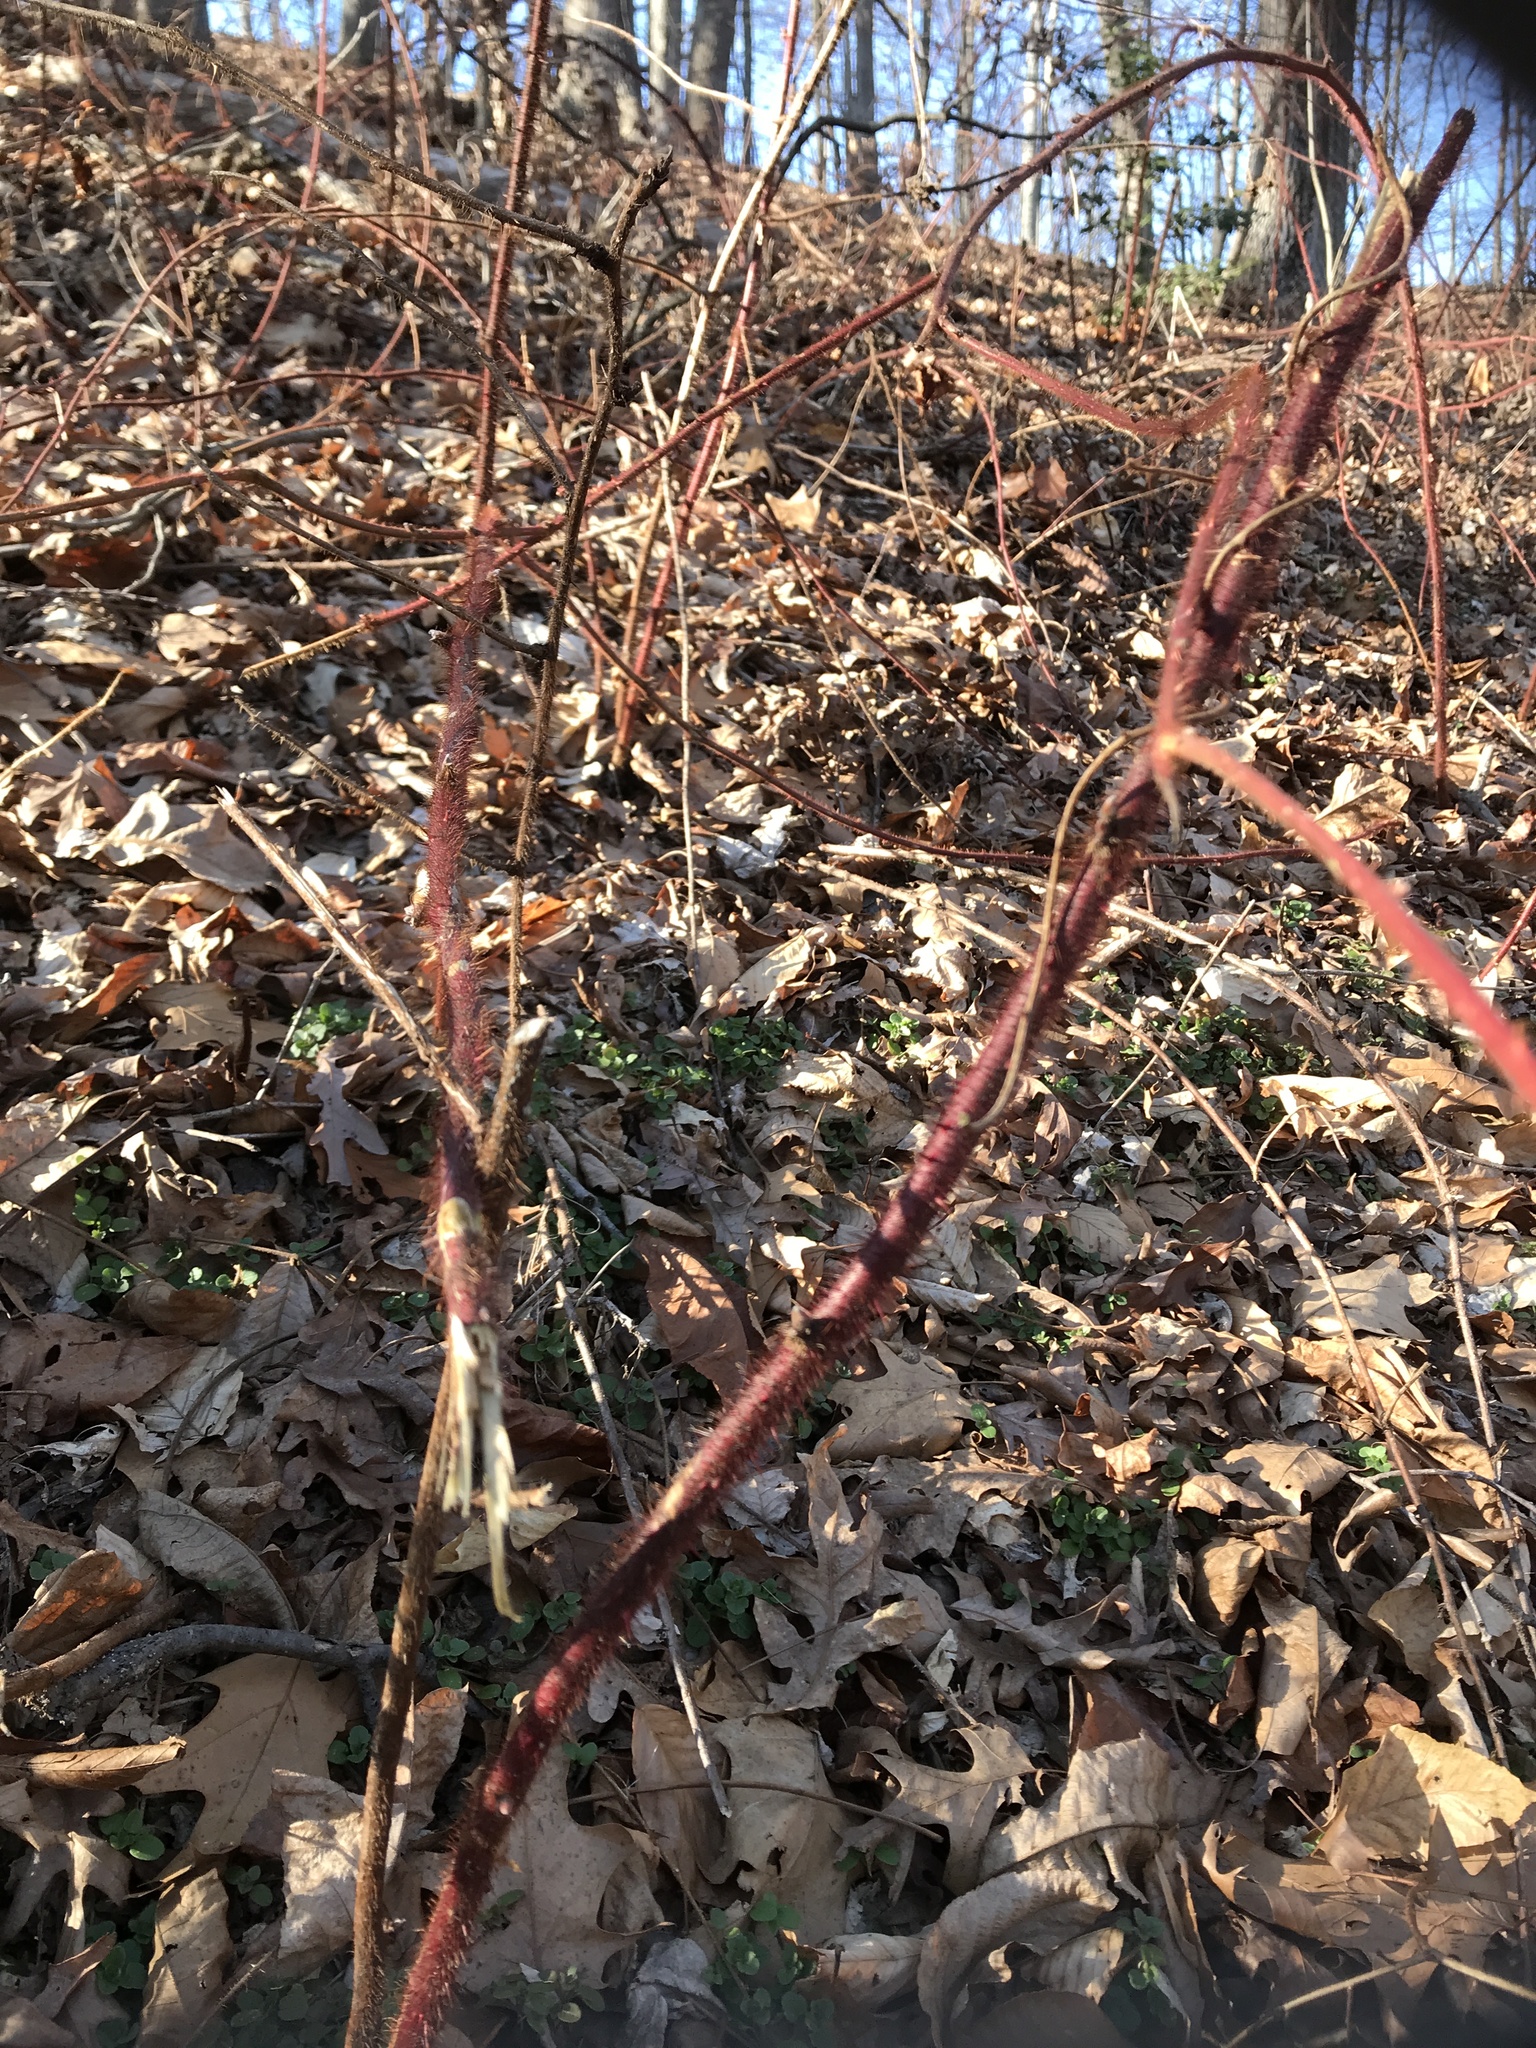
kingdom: Plantae
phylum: Tracheophyta
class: Magnoliopsida
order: Rosales
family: Rosaceae
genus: Rubus
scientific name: Rubus phoenicolasius
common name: Japanese wineberry
